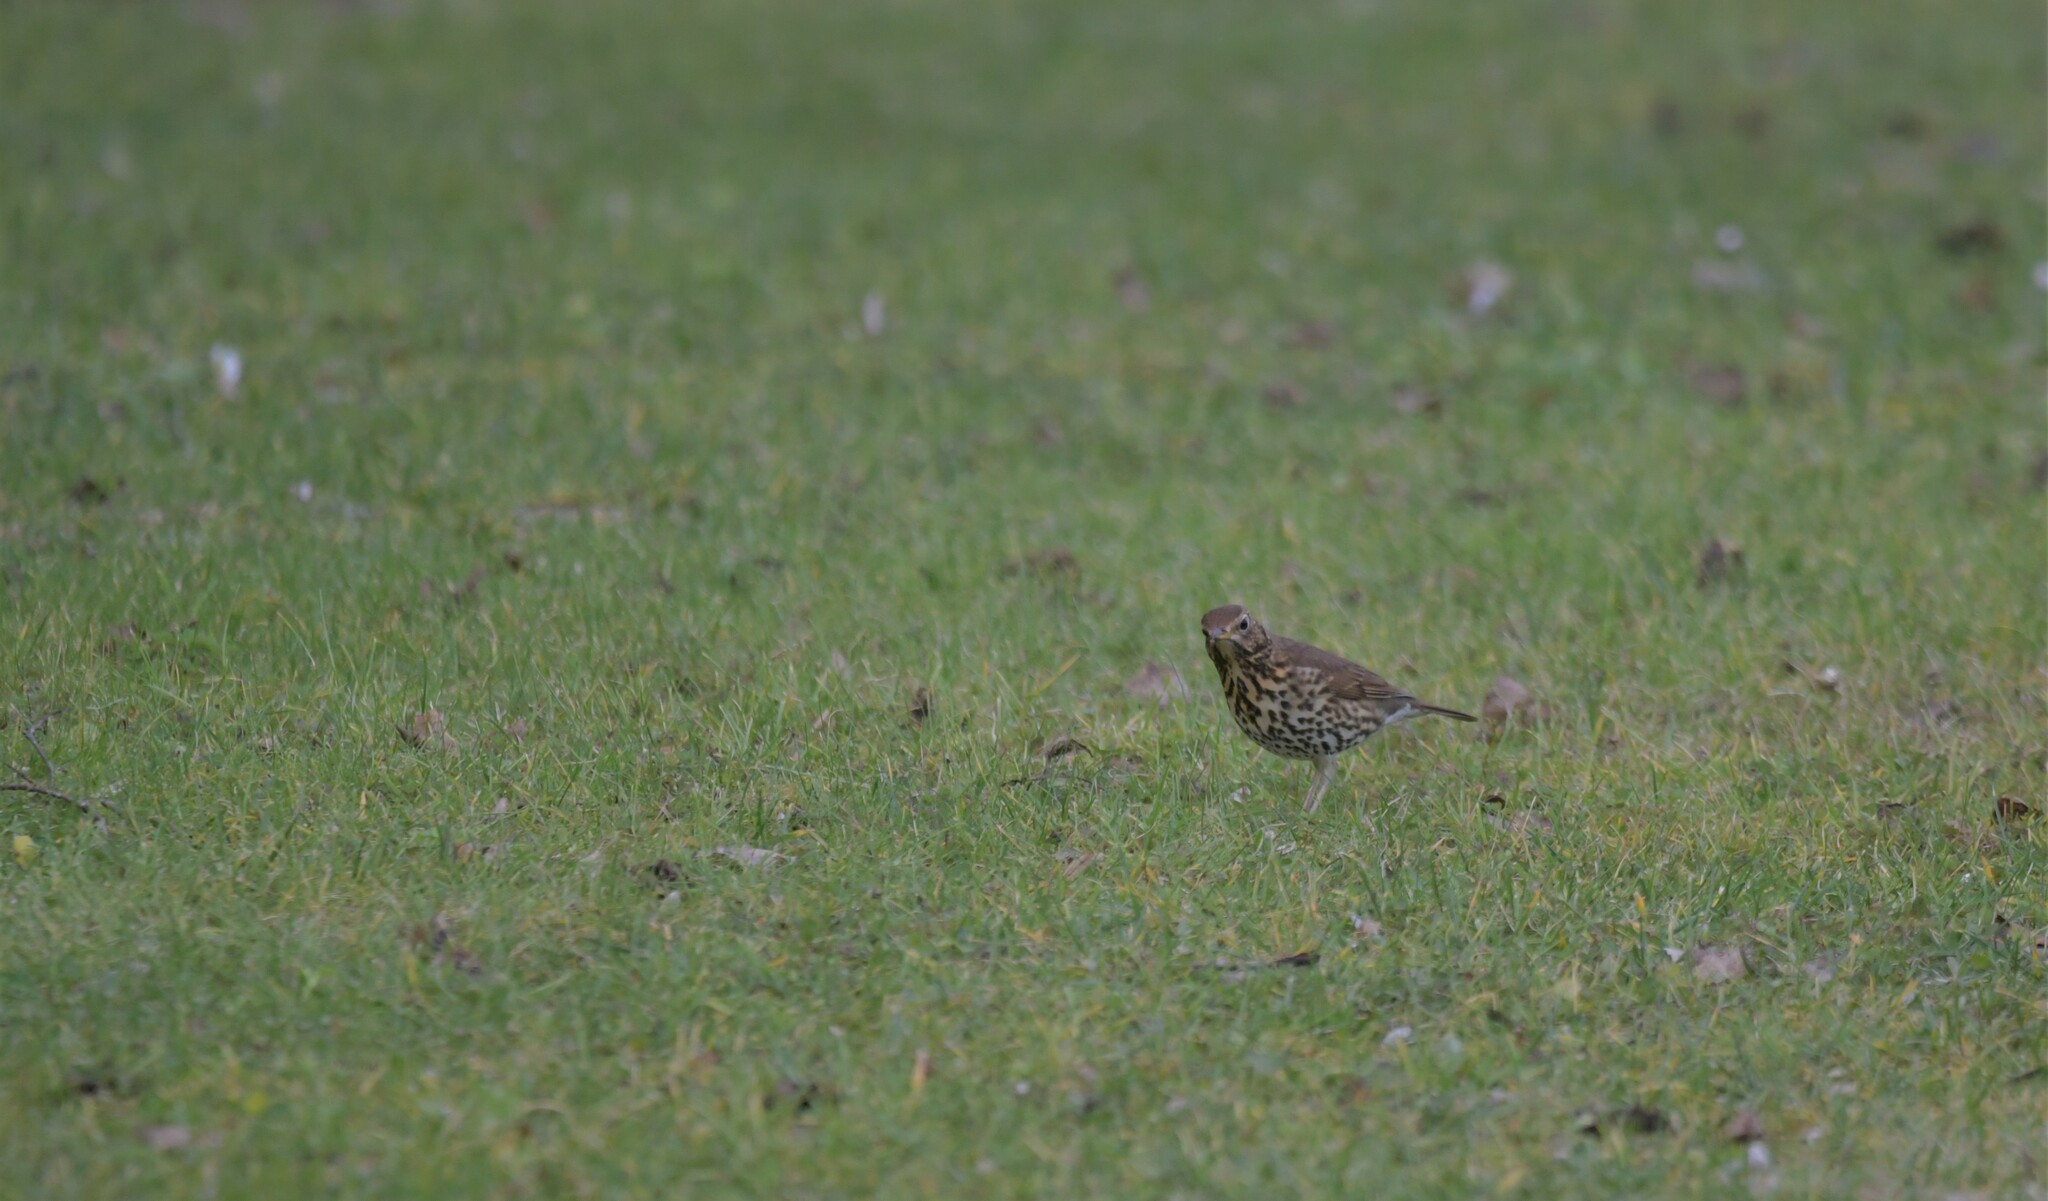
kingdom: Animalia
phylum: Chordata
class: Aves
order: Passeriformes
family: Turdidae
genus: Turdus
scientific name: Turdus philomelos
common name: Song thrush
